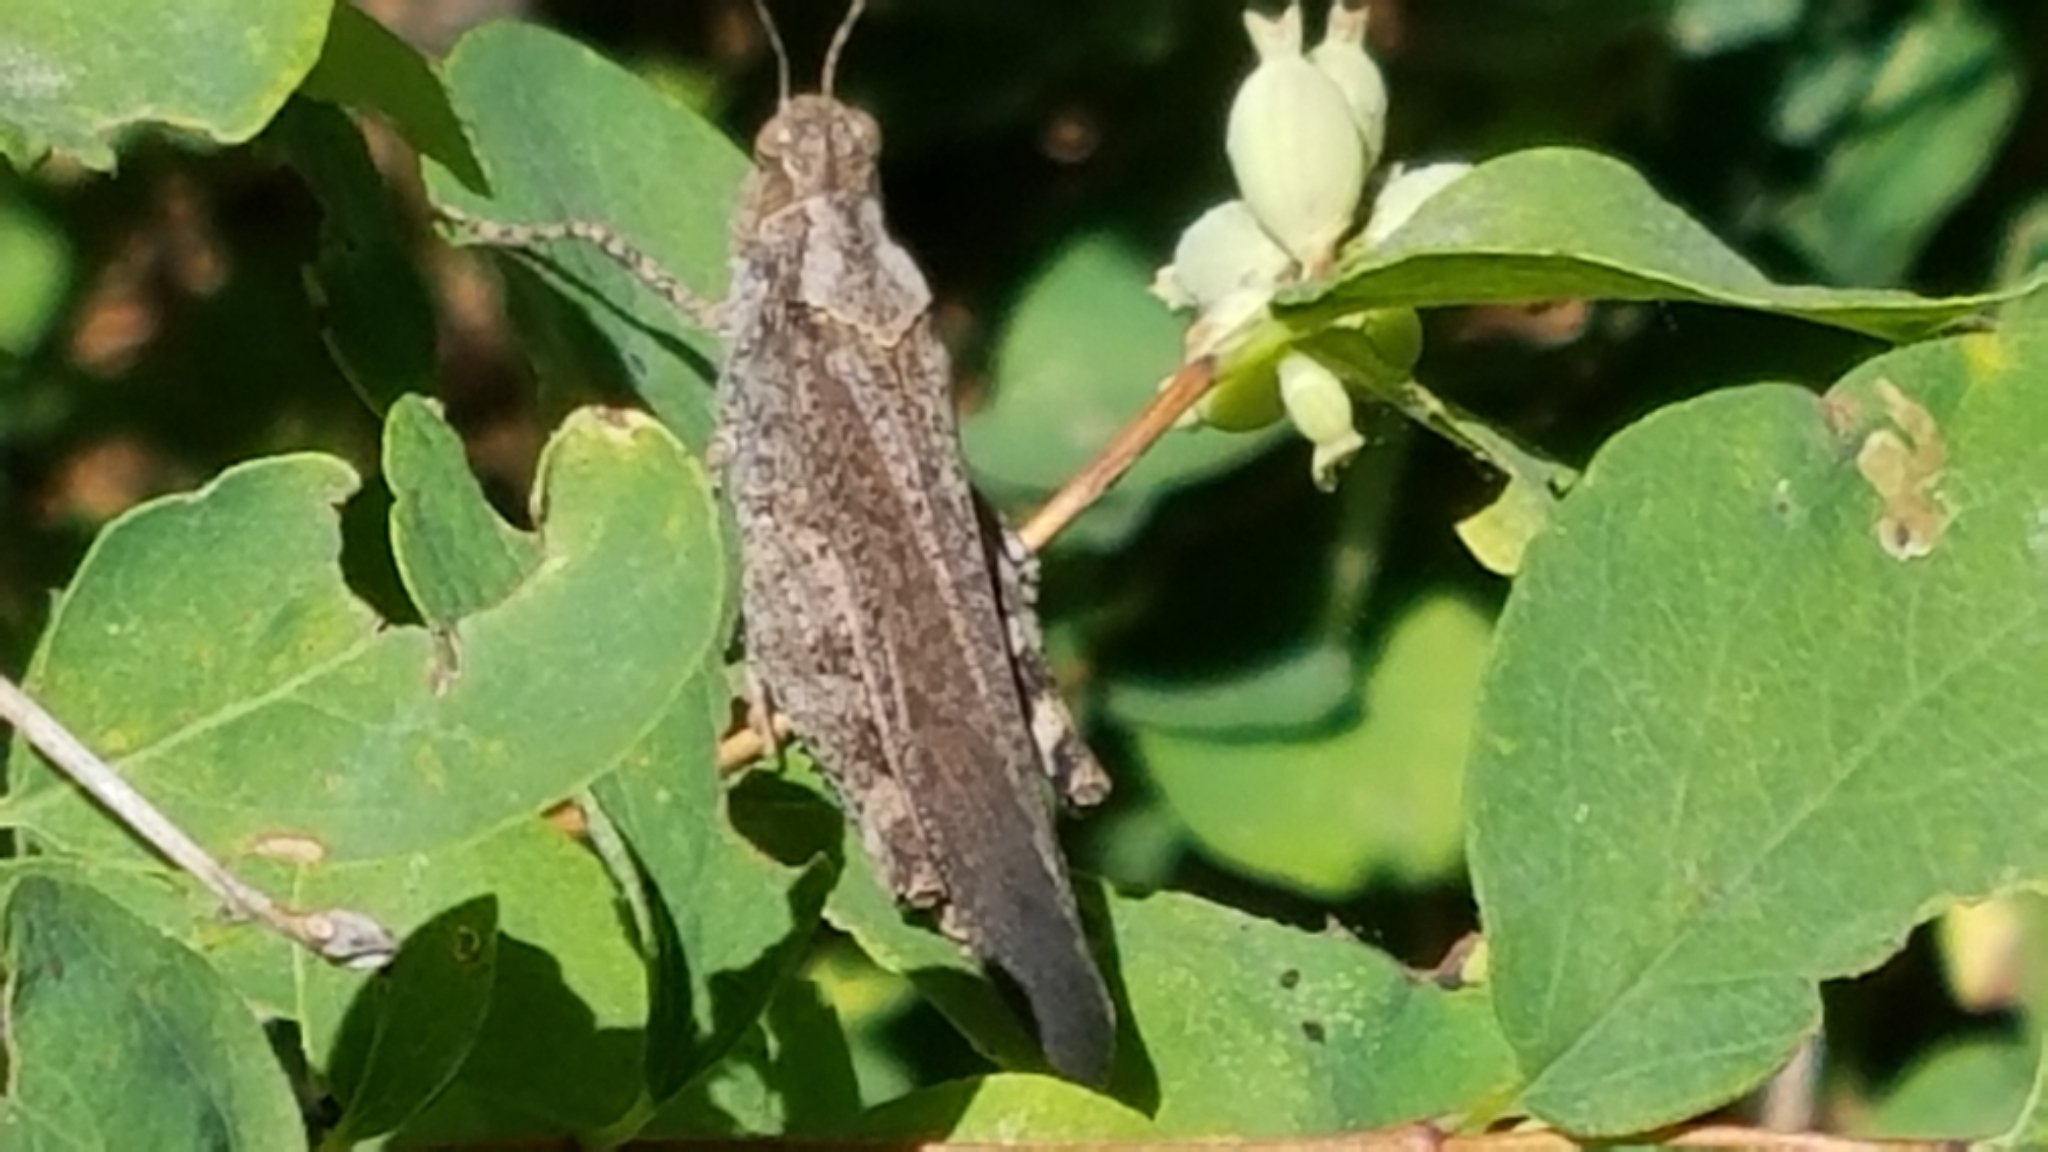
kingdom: Animalia
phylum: Arthropoda
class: Insecta
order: Orthoptera
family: Acrididae
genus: Trimerotropis
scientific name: Trimerotropis verruculata
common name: Crackling forest grasshopper
